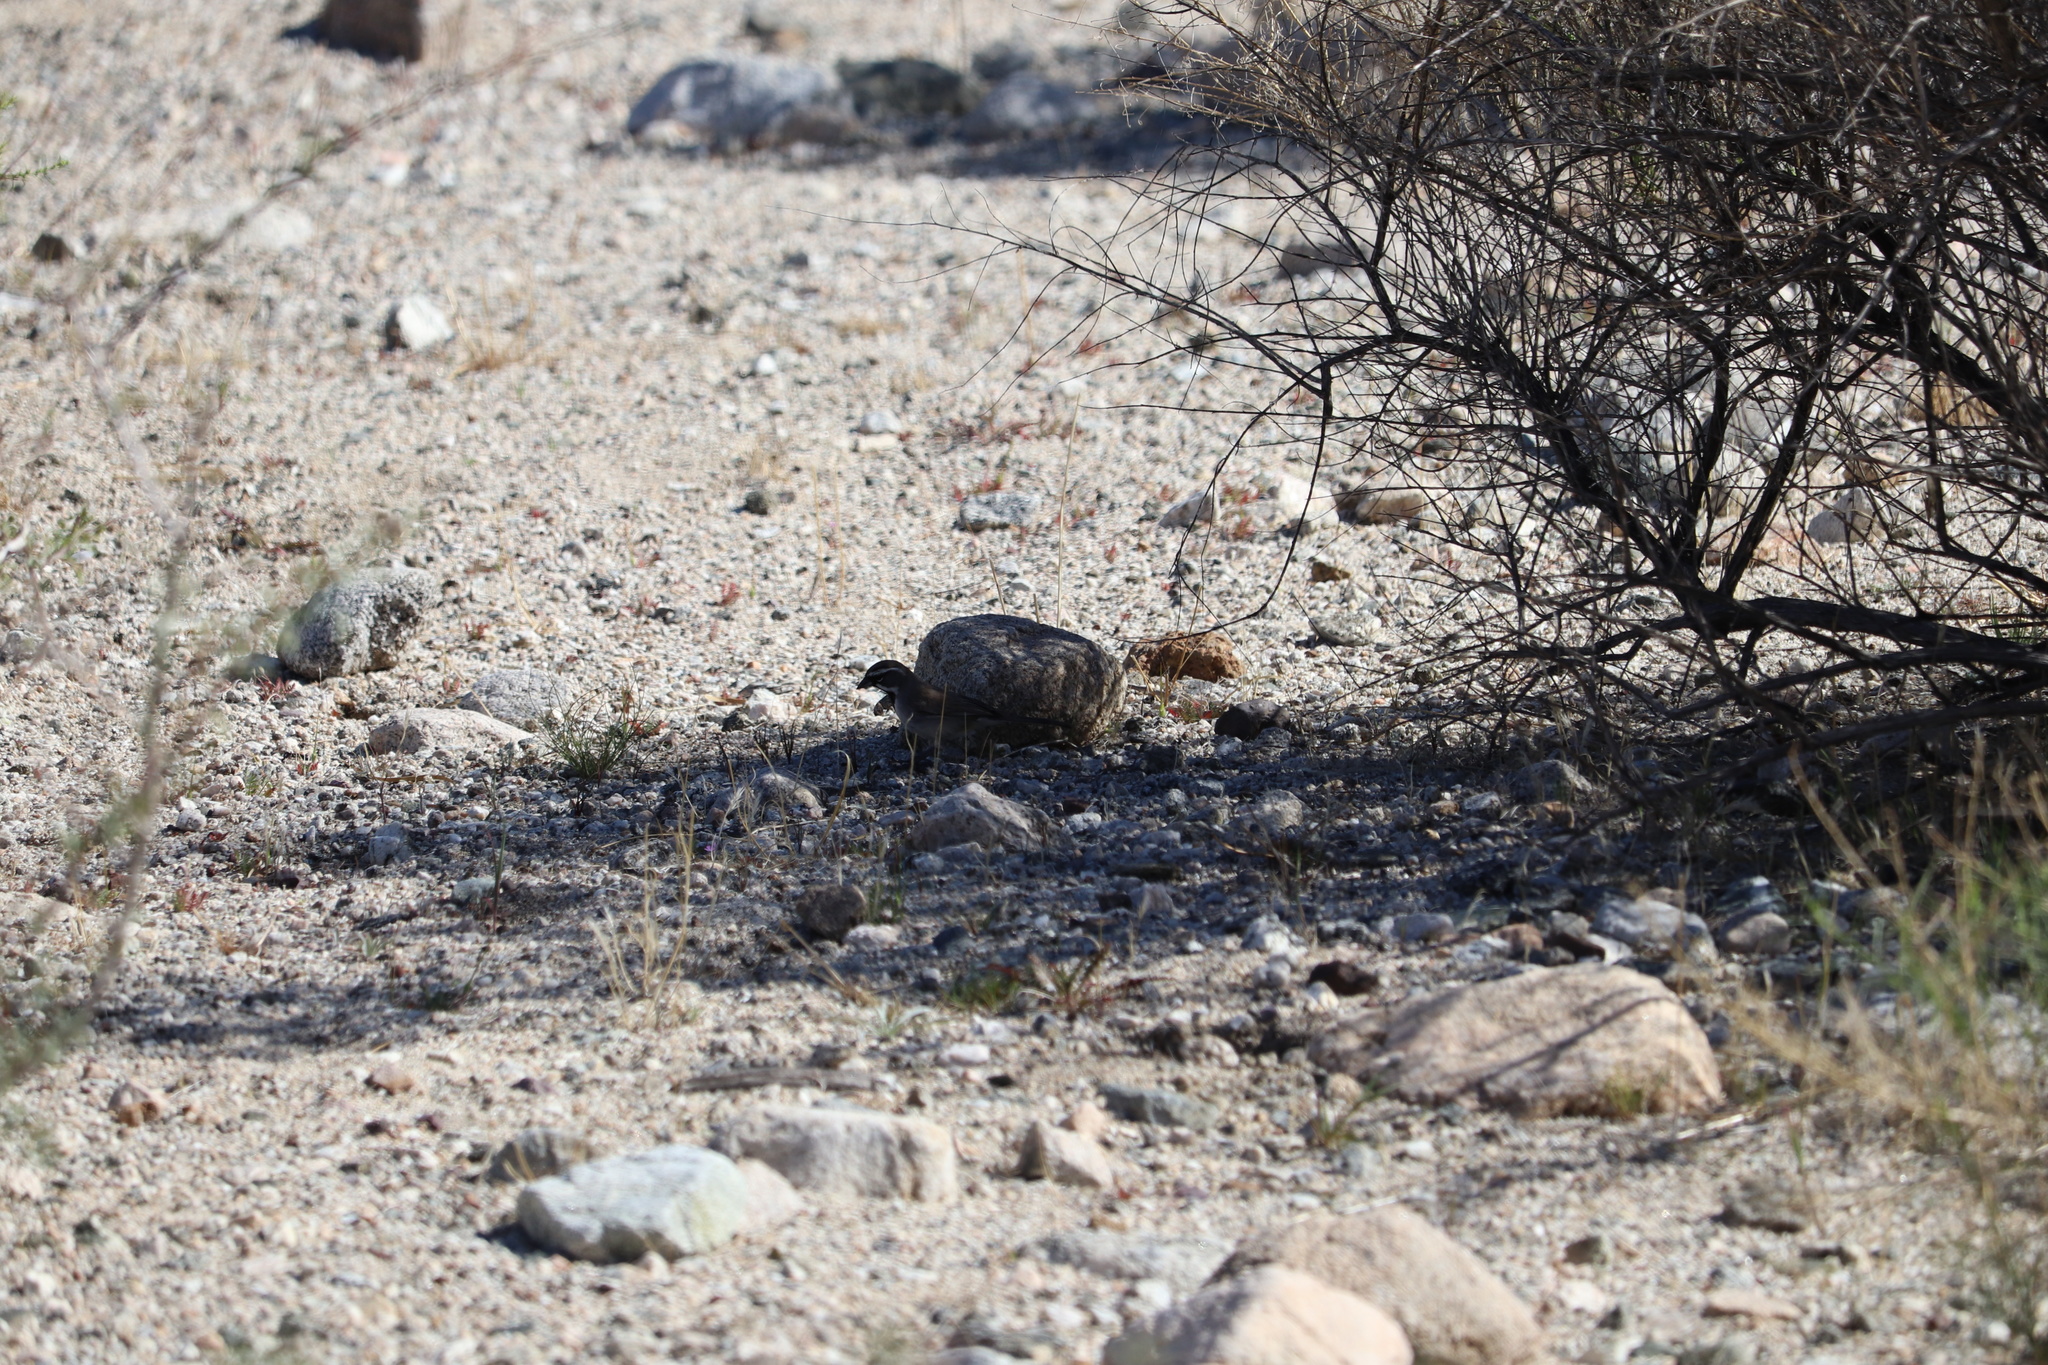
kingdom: Animalia
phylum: Chordata
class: Aves
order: Passeriformes
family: Passerellidae
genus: Amphispiza
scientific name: Amphispiza bilineata
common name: Black-throated sparrow
